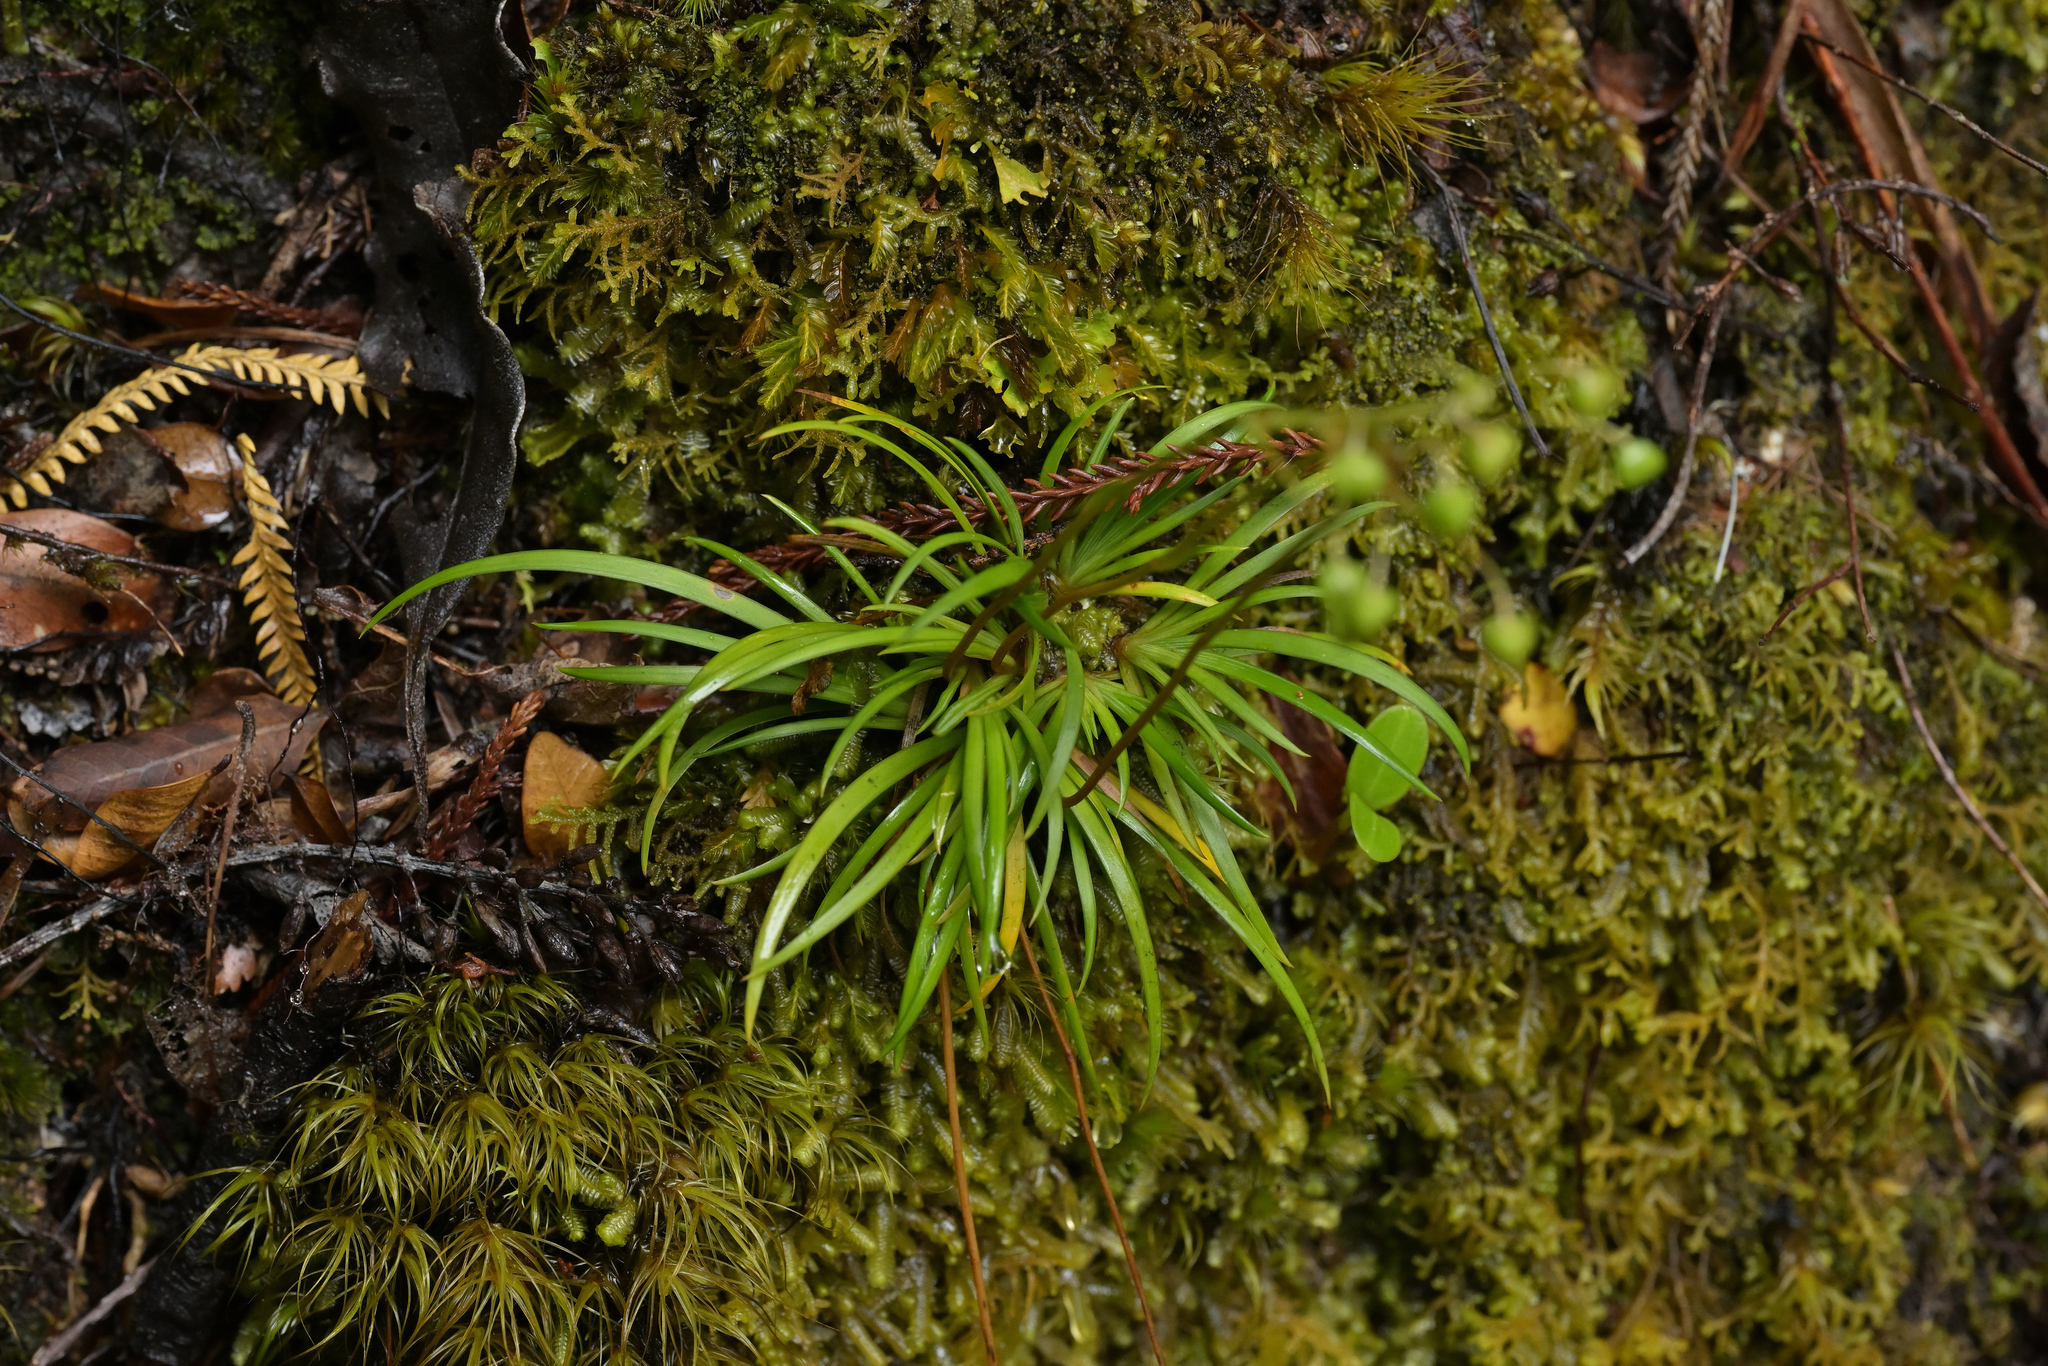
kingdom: Plantae
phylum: Tracheophyta
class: Liliopsida
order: Asparagales
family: Iridaceae
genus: Libertia
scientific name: Libertia micrantha
